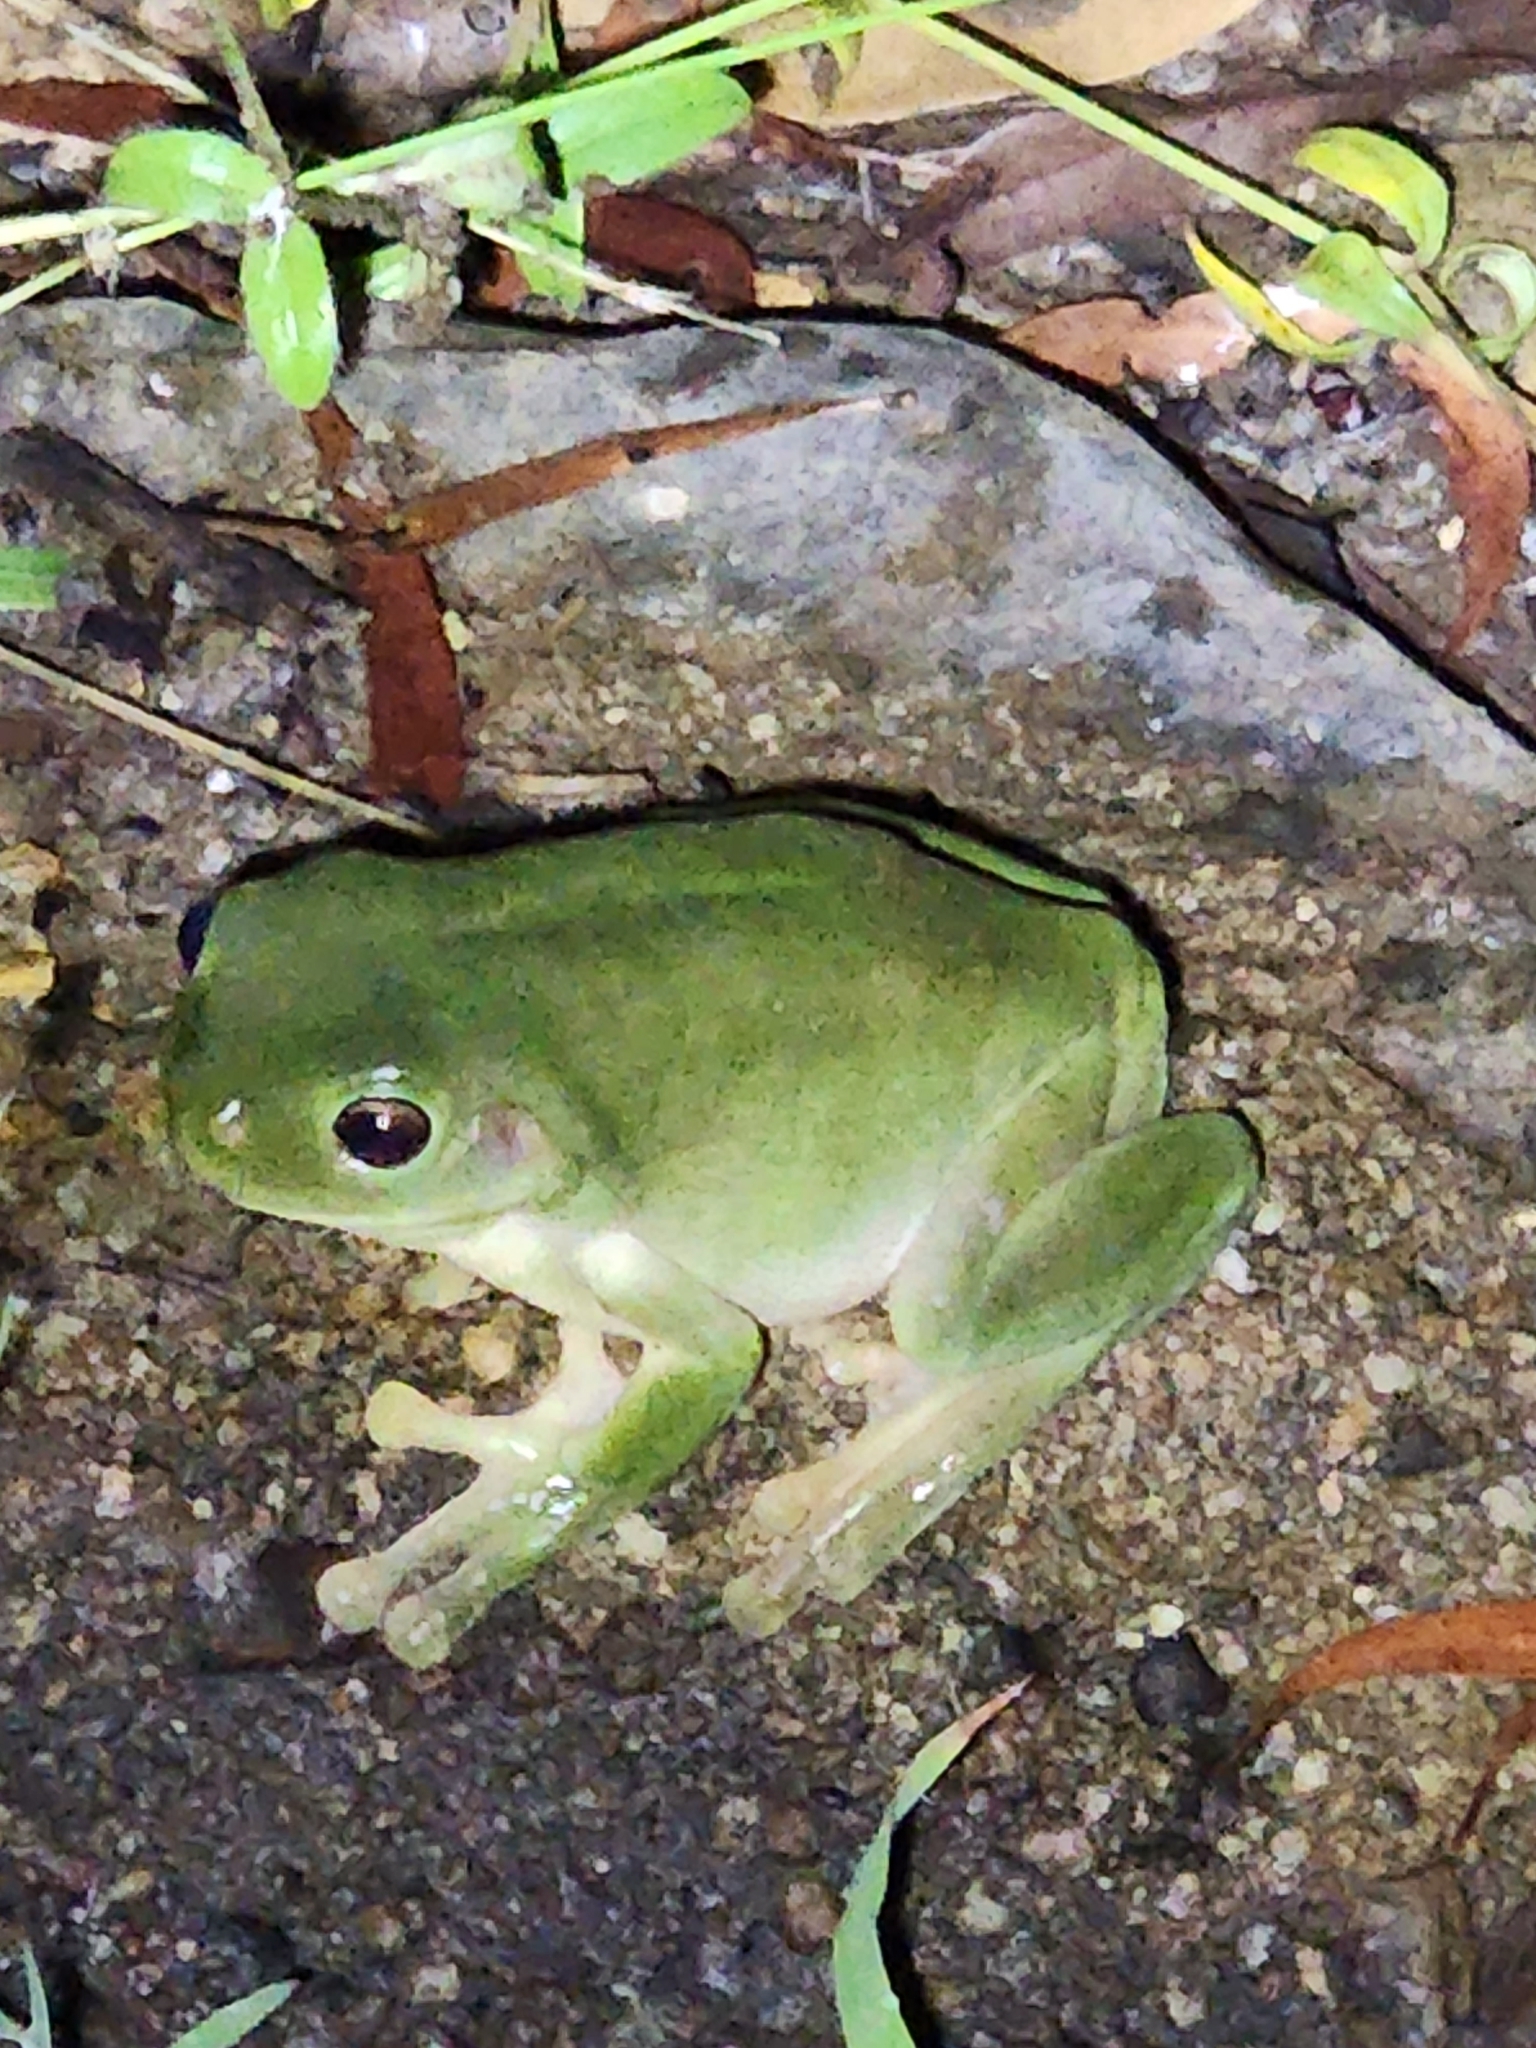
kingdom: Animalia
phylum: Chordata
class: Amphibia
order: Anura
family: Pelodryadidae
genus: Ranoidea
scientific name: Ranoidea caerulea
